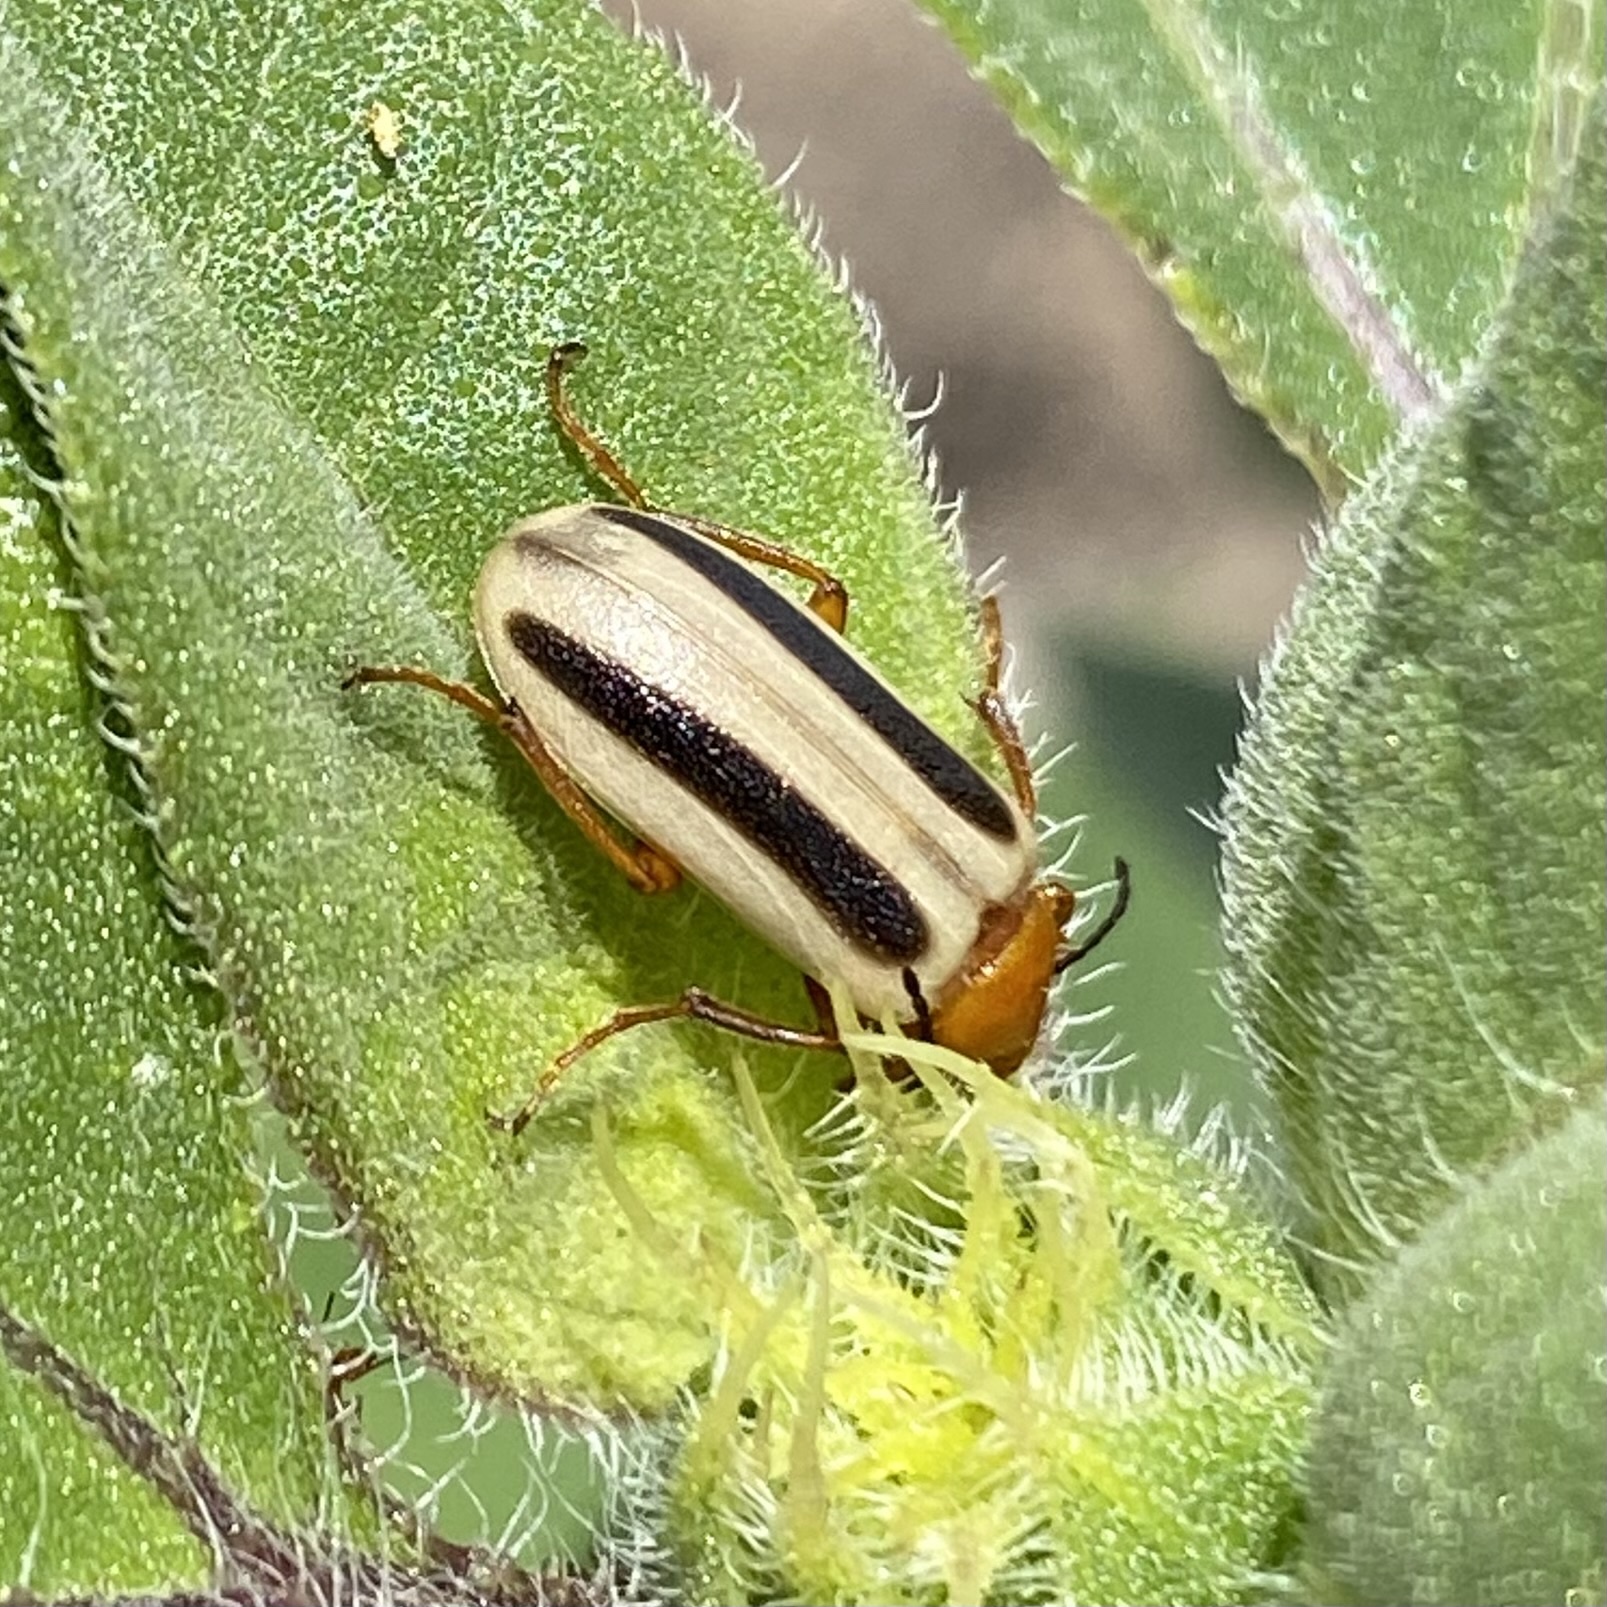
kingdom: Animalia
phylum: Arthropoda
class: Insecta
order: Coleoptera
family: Meloidae
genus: Zonitis
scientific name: Zonitis bilineata
